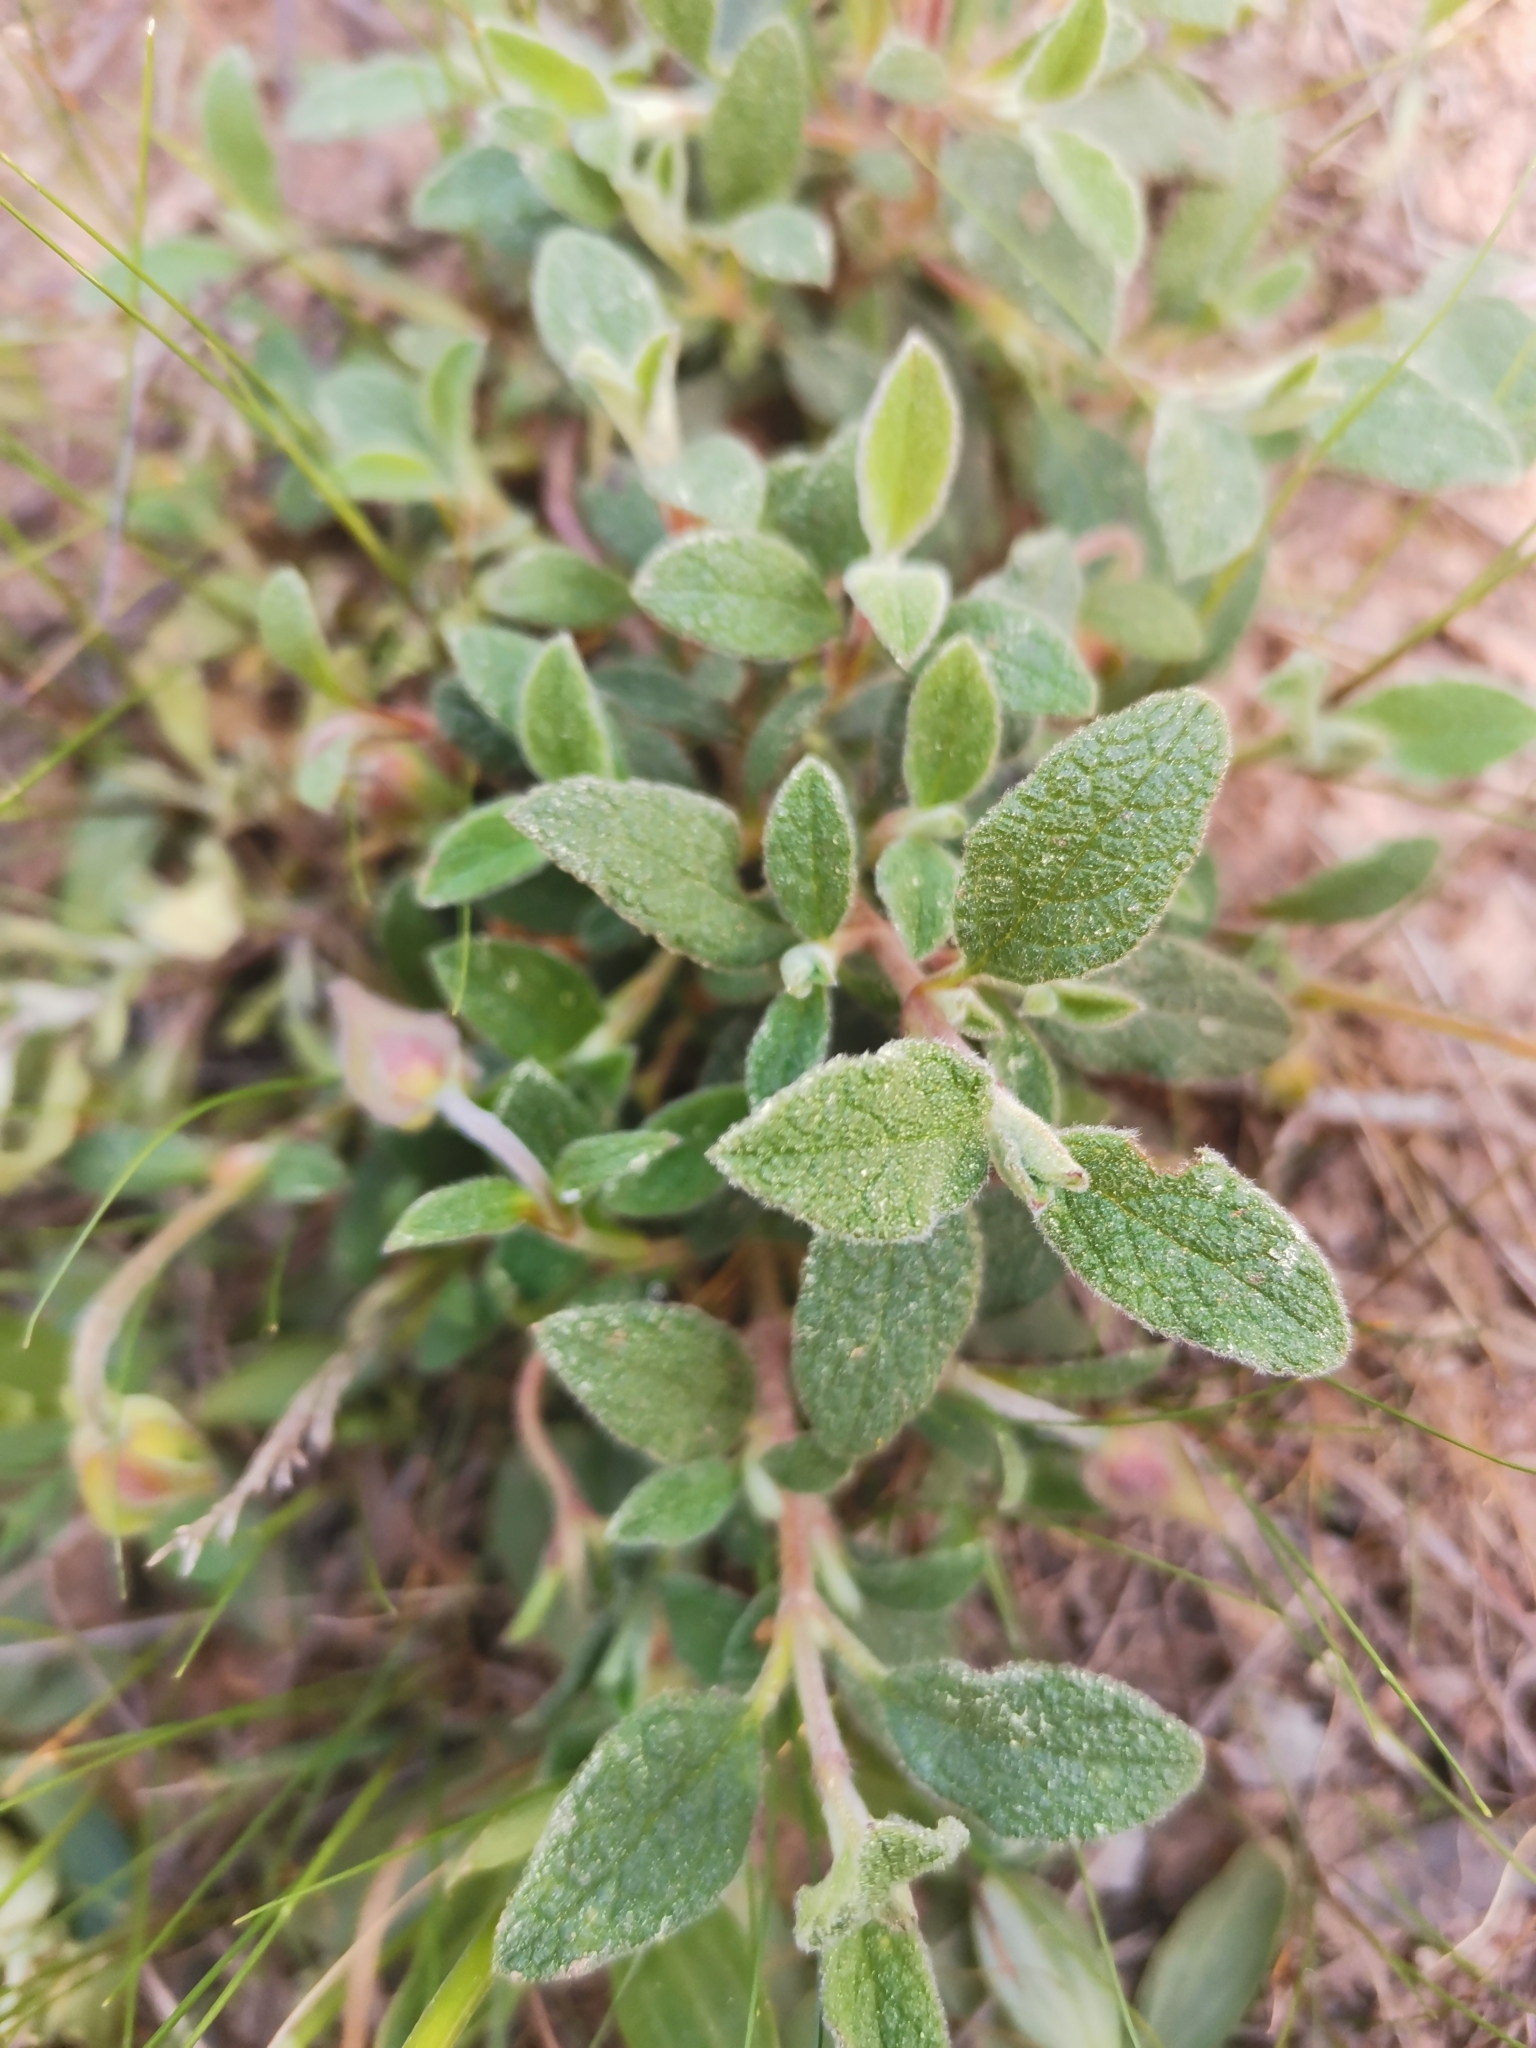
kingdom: Plantae
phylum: Tracheophyta
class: Magnoliopsida
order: Malvales
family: Cistaceae
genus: Cistus
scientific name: Cistus salviifolius
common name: Salvia cistus
